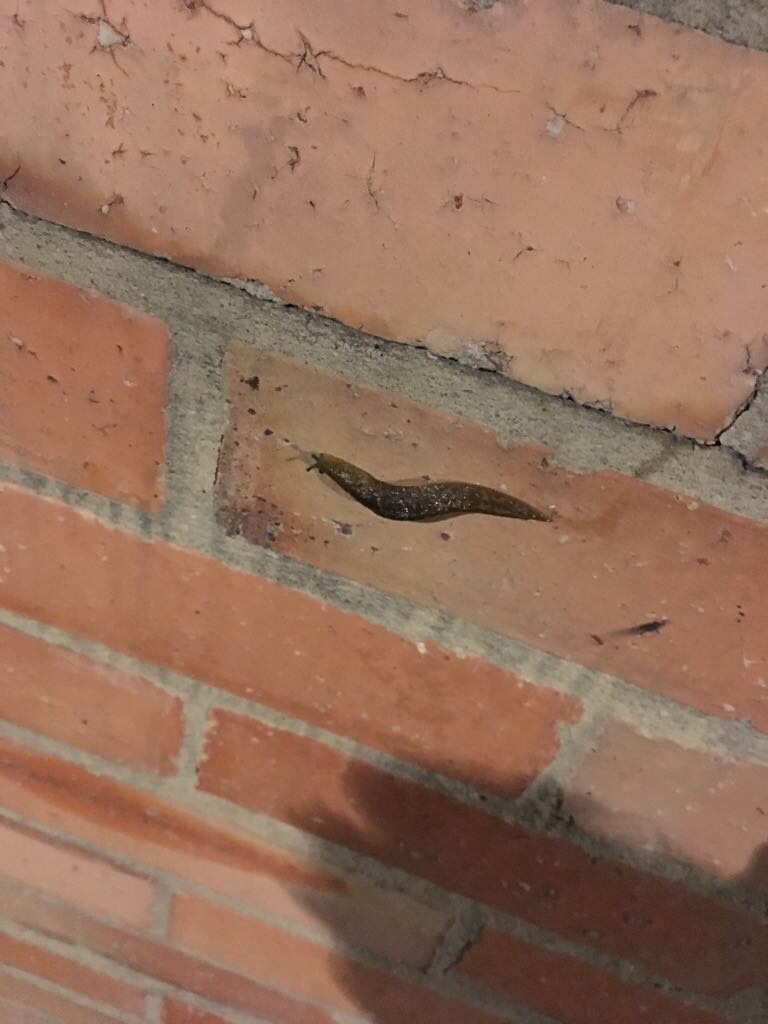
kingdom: Animalia
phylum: Mollusca
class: Gastropoda
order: Stylommatophora
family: Limacidae
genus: Limacus
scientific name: Limacus flavus
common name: Yellow gardenslug
